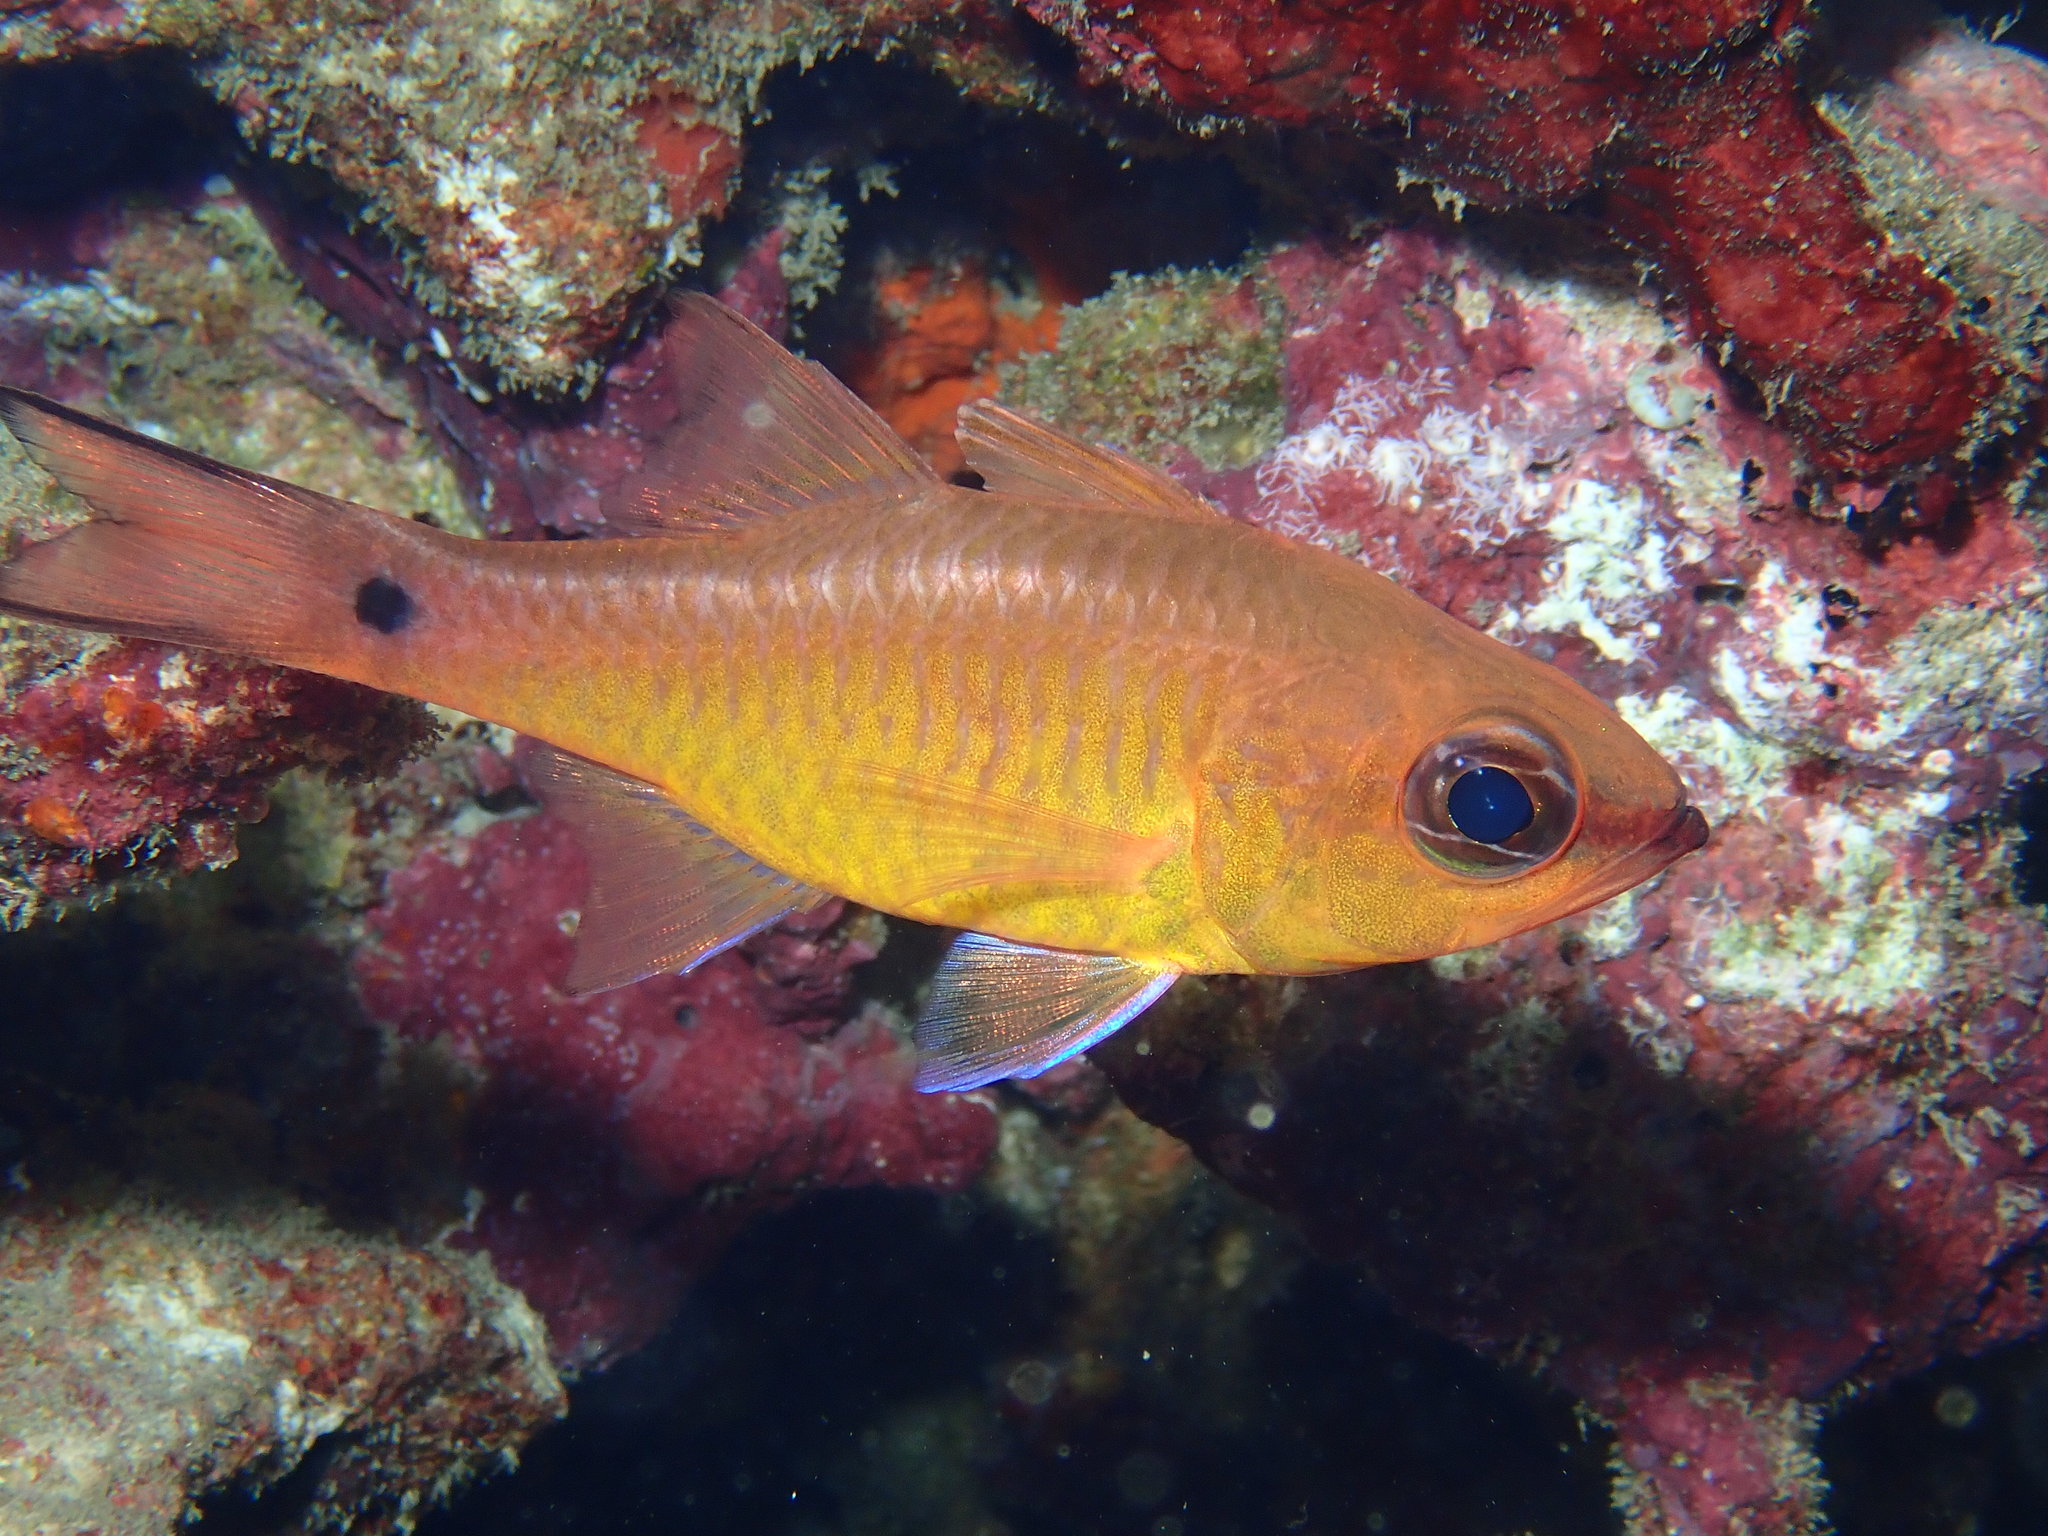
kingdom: Animalia
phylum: Chordata
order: Perciformes
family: Apogonidae
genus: Ostorhinchus
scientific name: Ostorhinchus flavus
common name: Brassy cardinalfish
